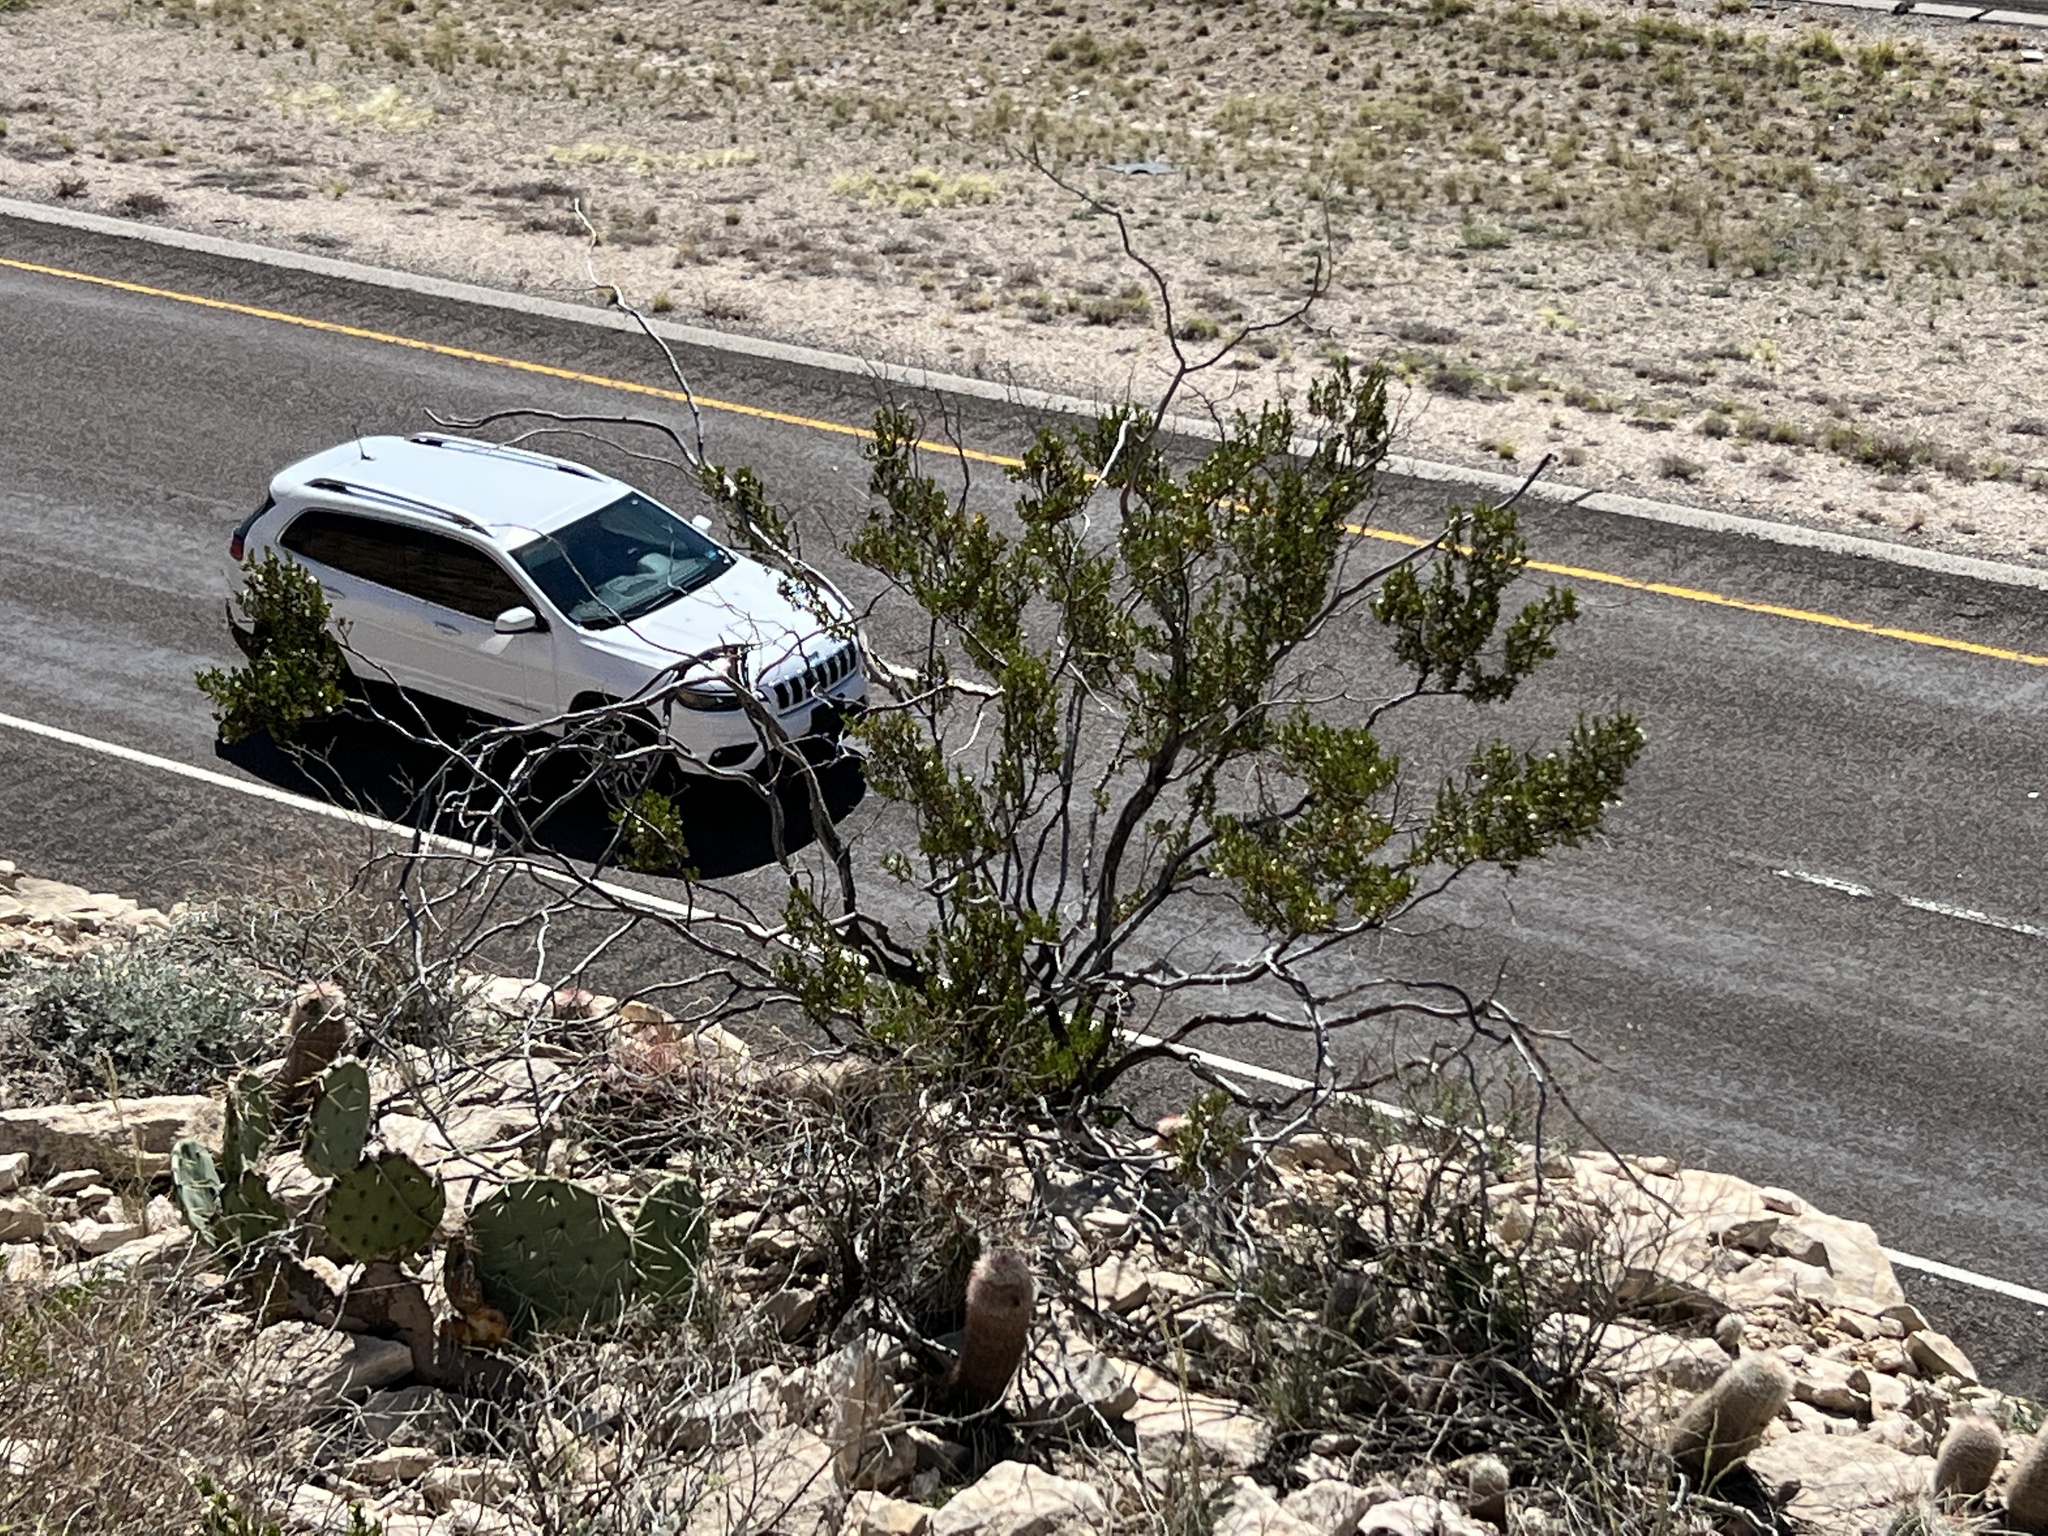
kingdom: Plantae
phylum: Tracheophyta
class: Magnoliopsida
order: Zygophyllales
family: Zygophyllaceae
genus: Larrea
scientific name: Larrea tridentata
